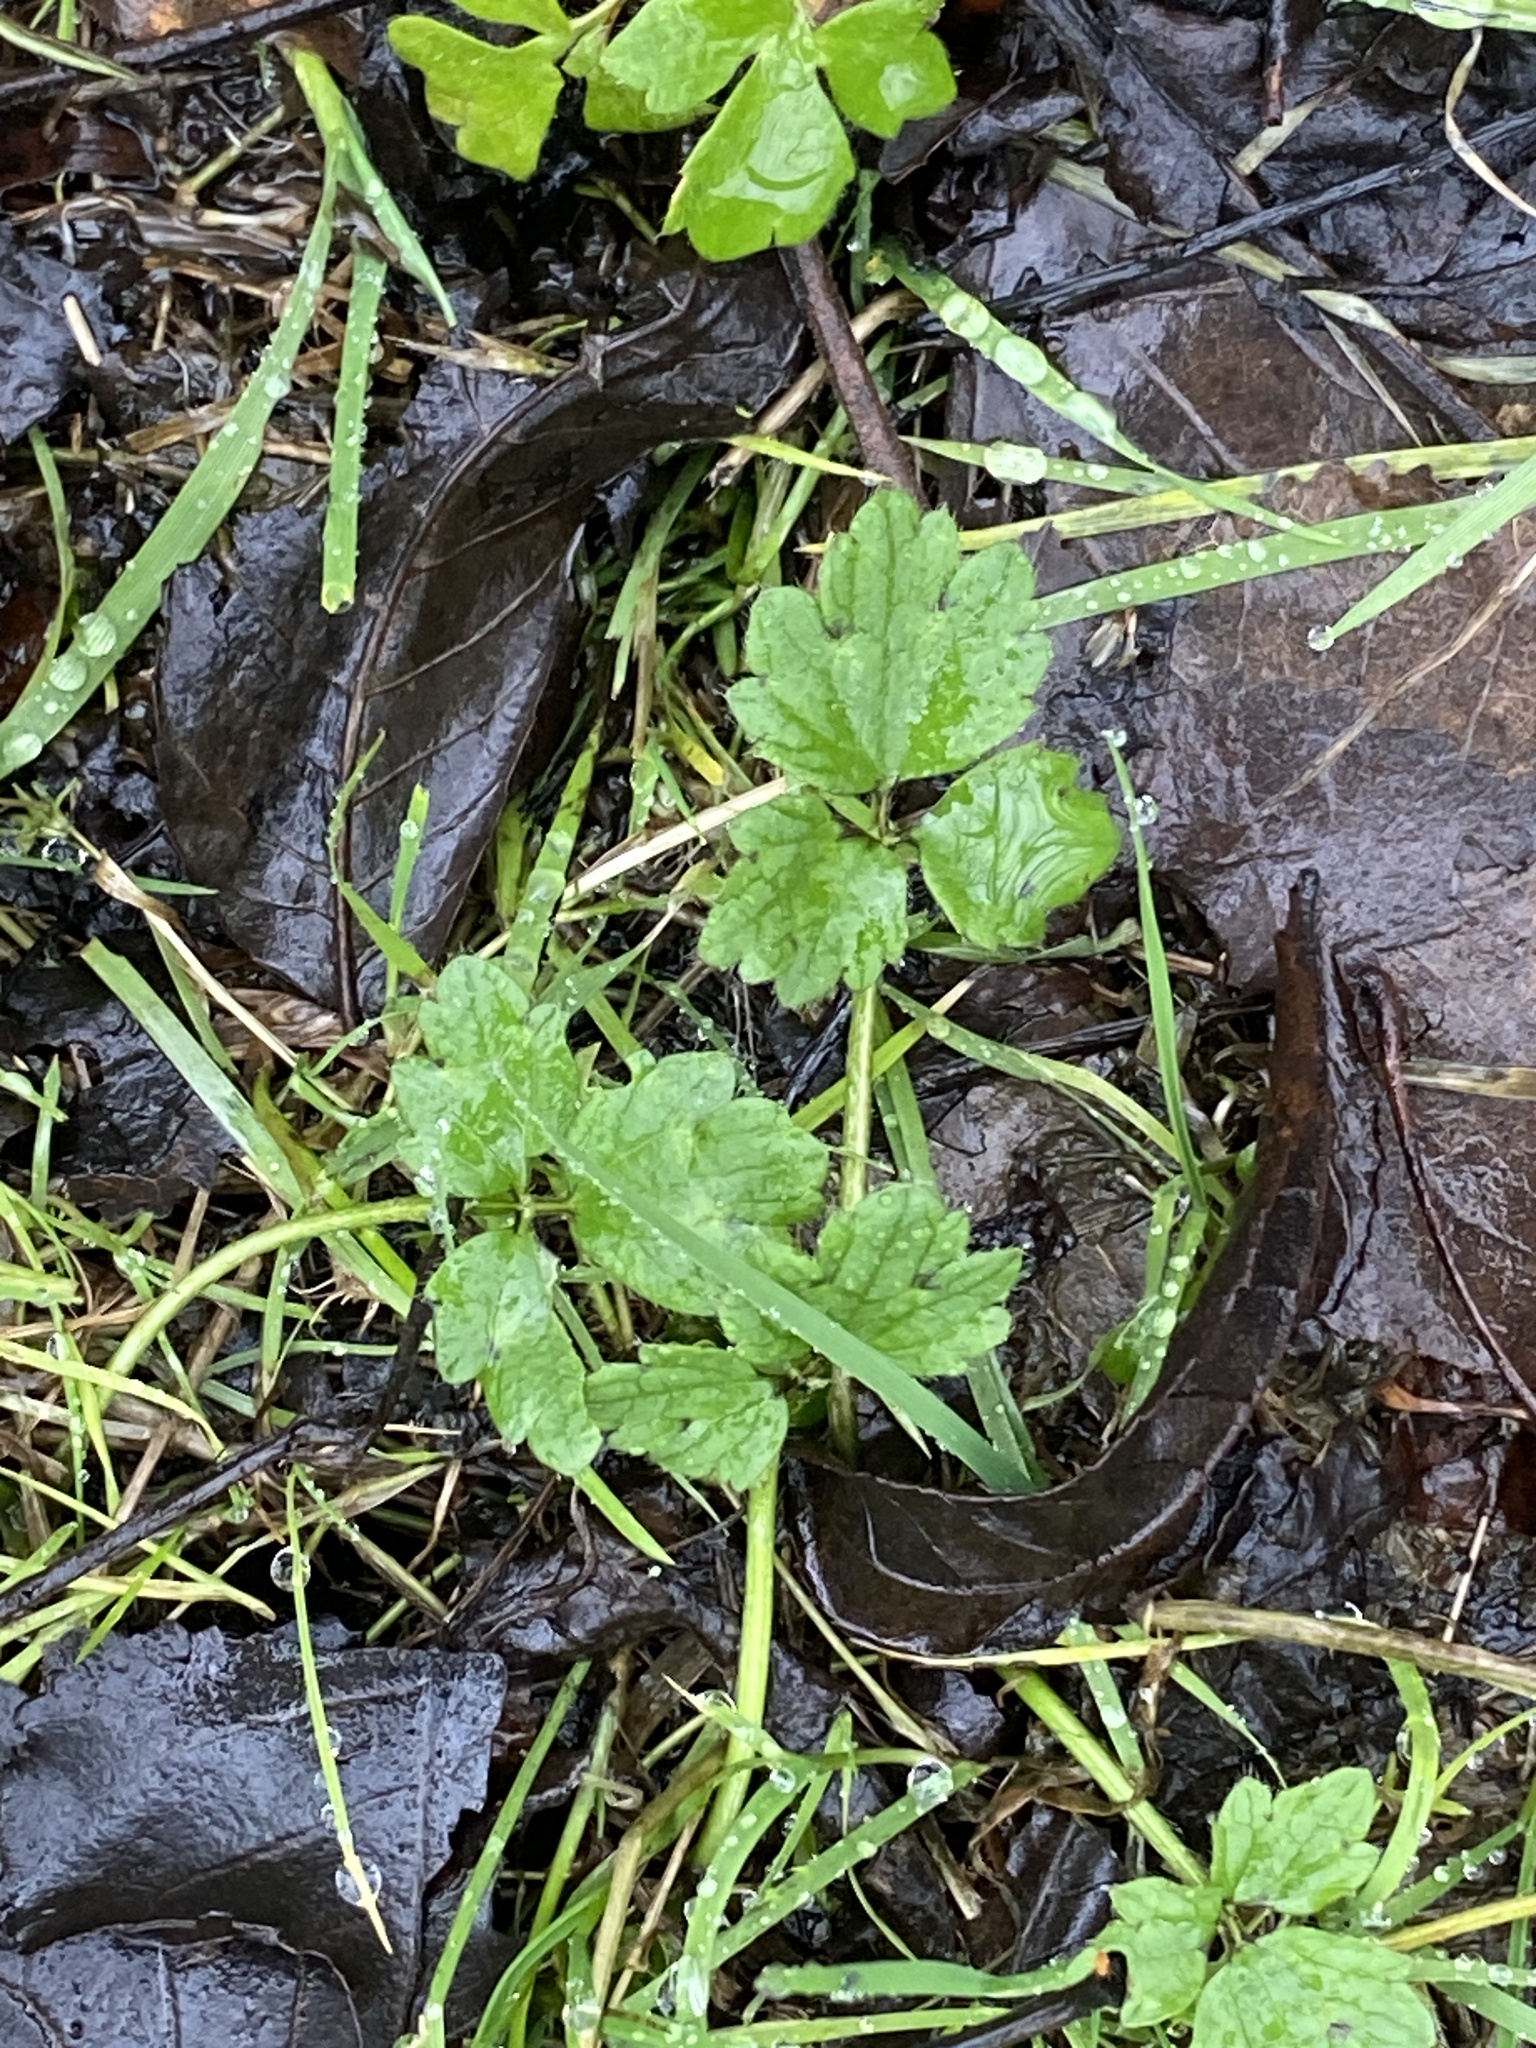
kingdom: Plantae
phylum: Tracheophyta
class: Magnoliopsida
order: Ranunculales
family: Ranunculaceae
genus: Ranunculus
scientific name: Ranunculus repens
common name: Creeping buttercup
